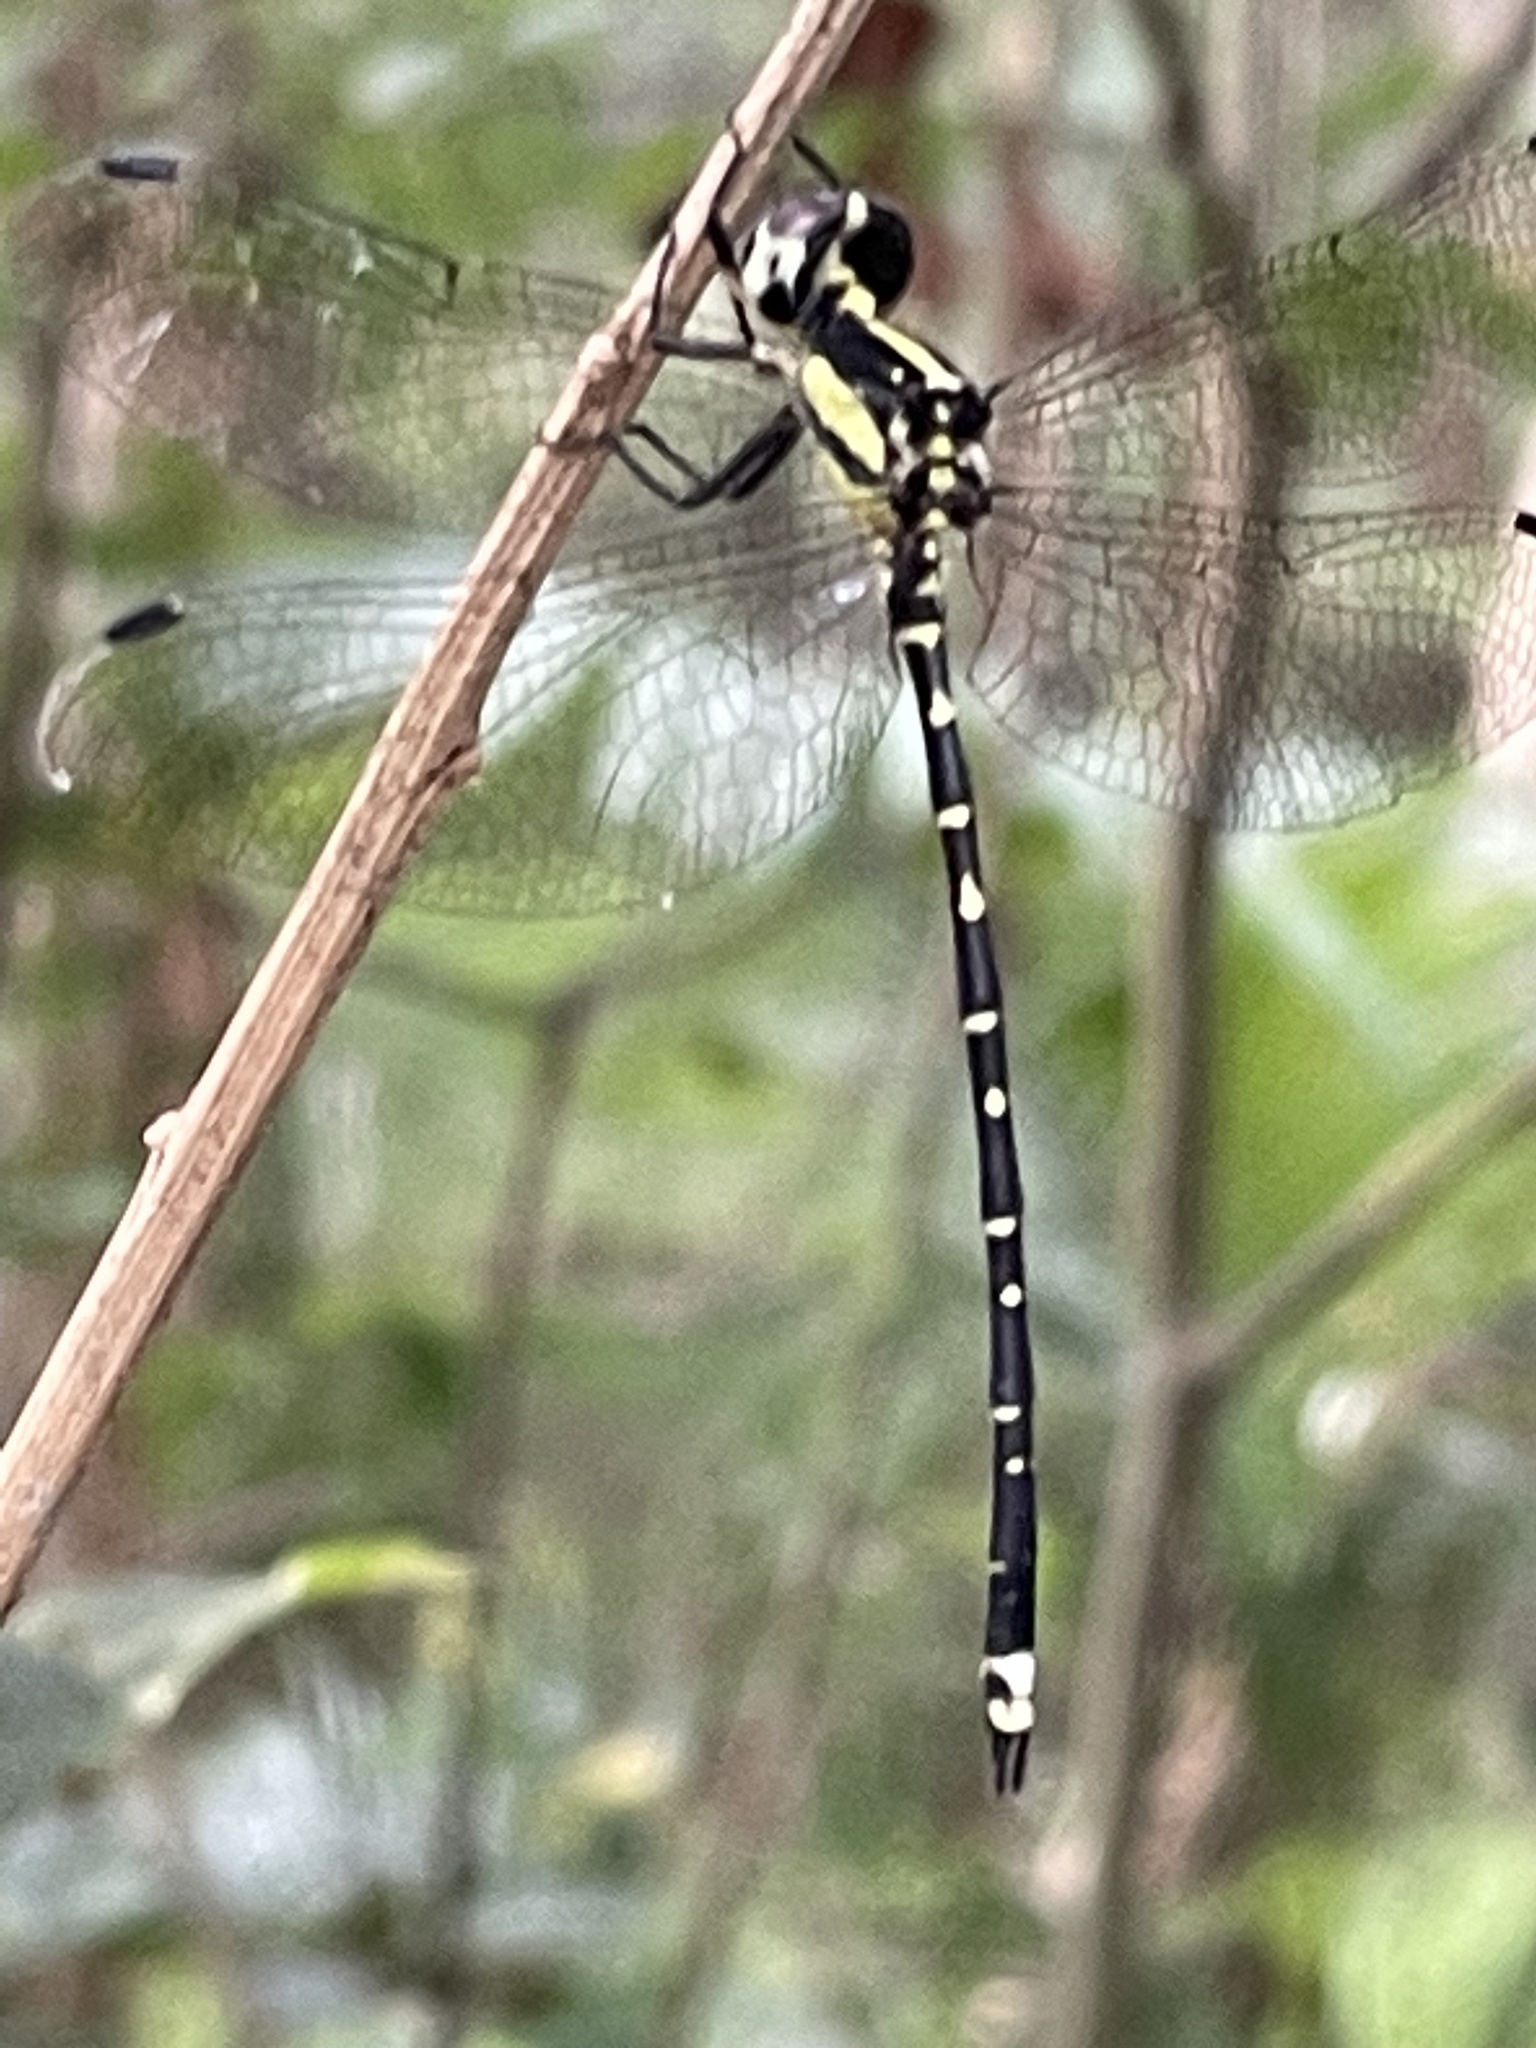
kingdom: Animalia
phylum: Arthropoda
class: Insecta
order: Odonata
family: Synthemistidae
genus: Choristhemis
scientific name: Choristhemis flavoterminata
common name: Yellow-tipped tigertail
